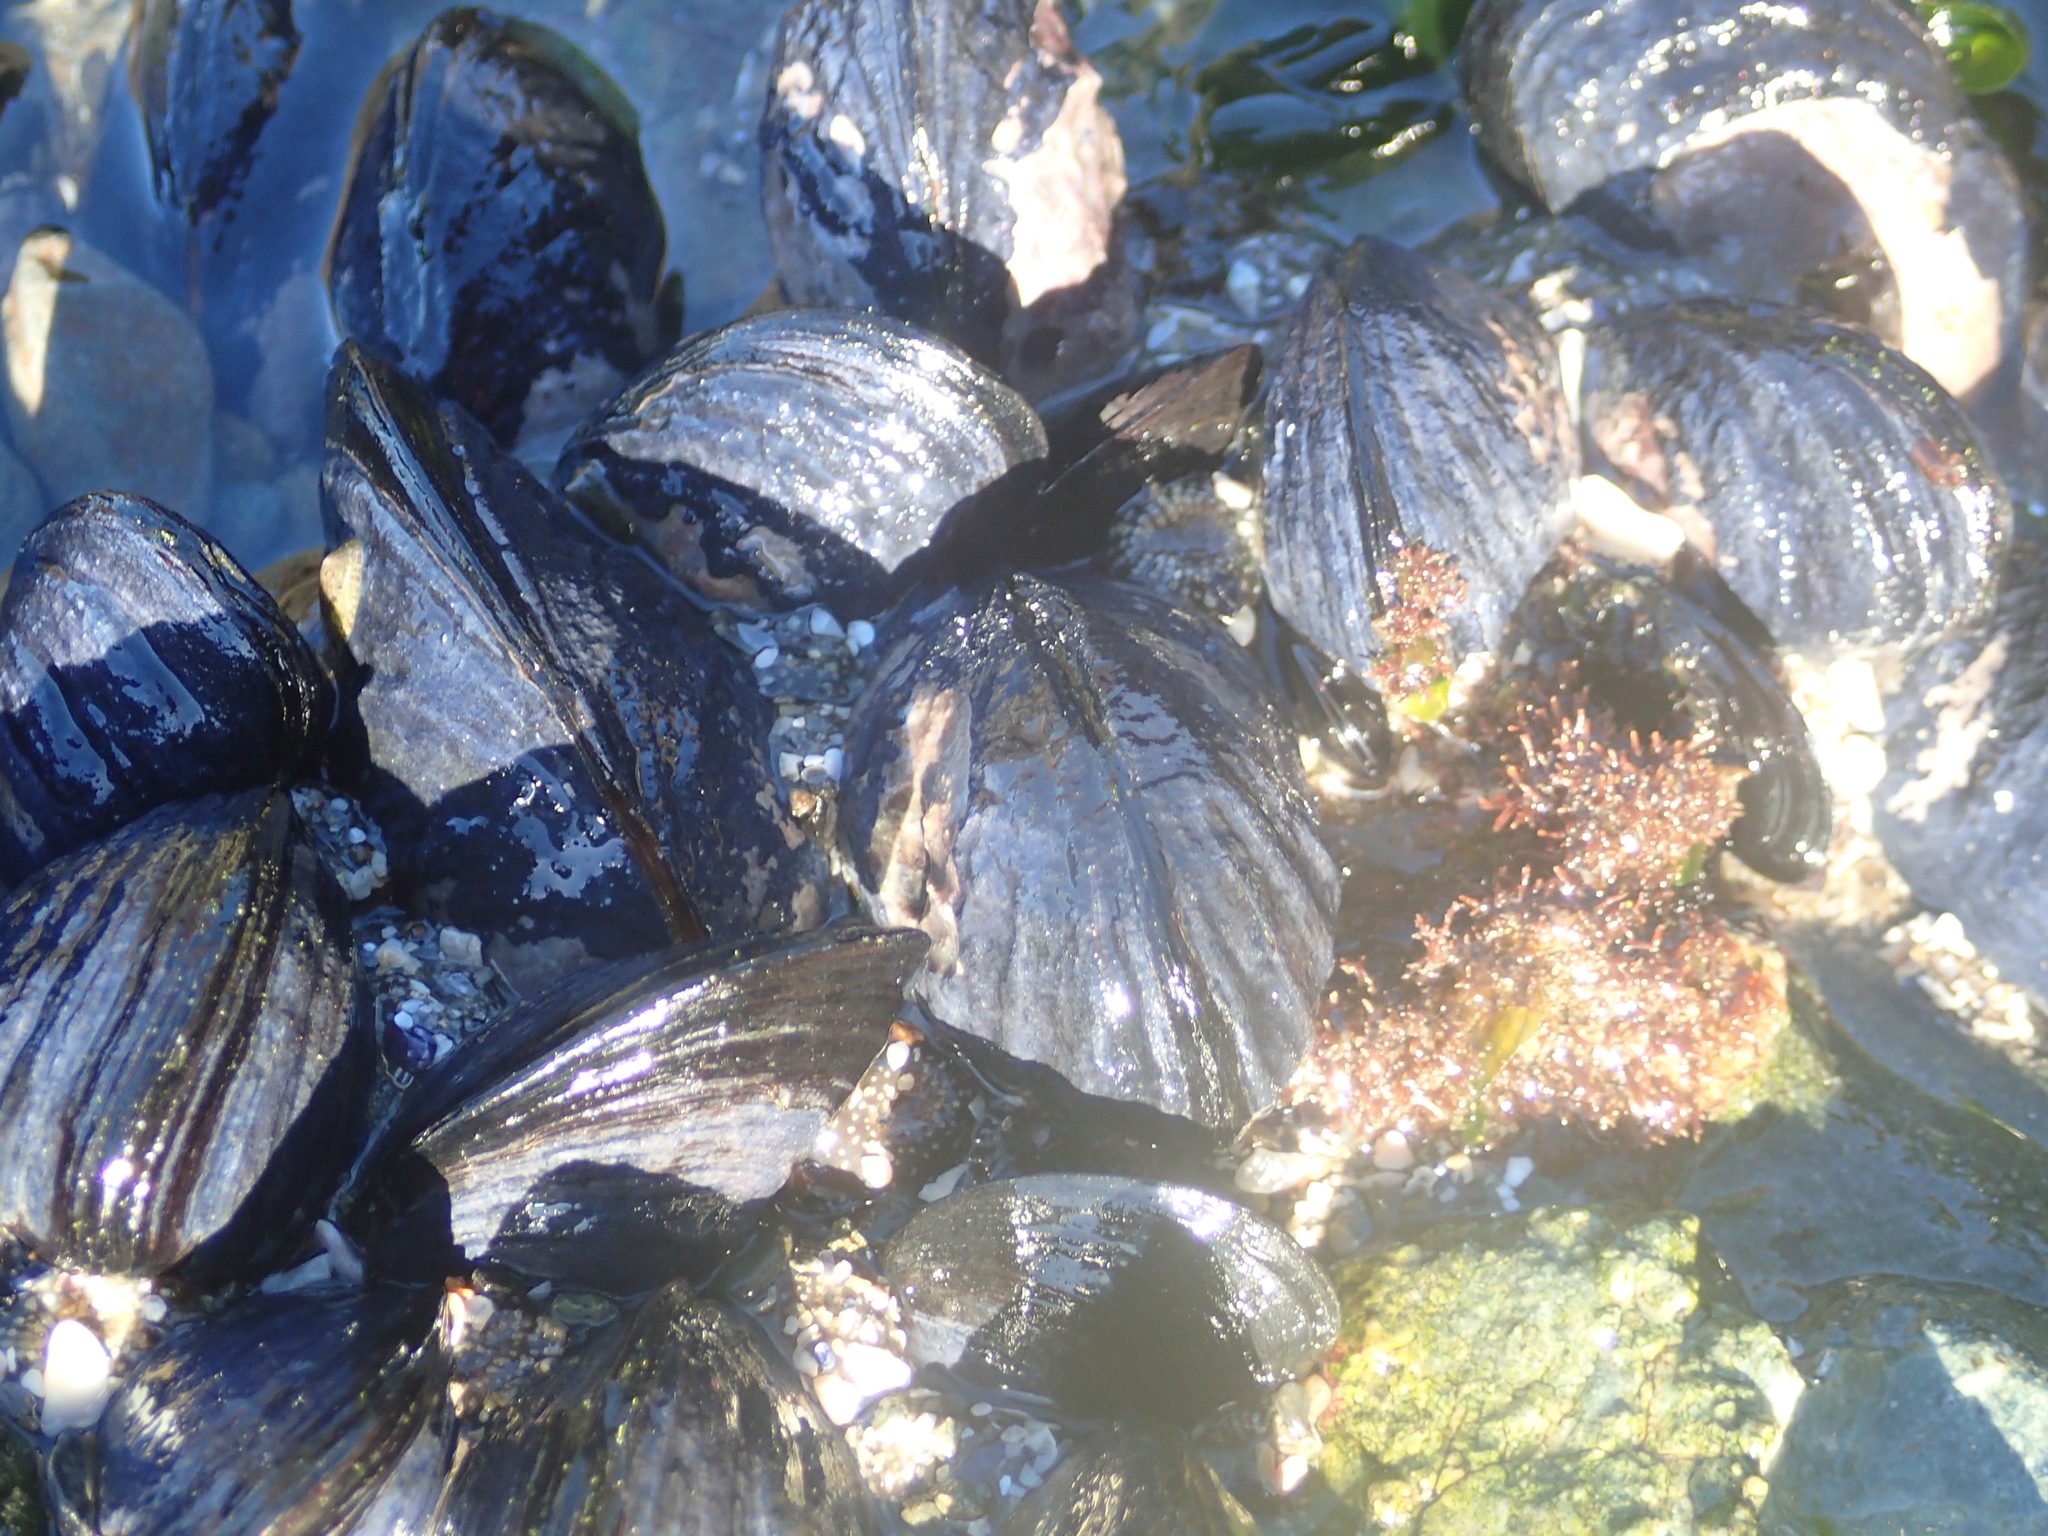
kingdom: Animalia
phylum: Mollusca
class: Bivalvia
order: Mytilida
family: Mytilidae
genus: Mytilus
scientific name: Mytilus planulatus
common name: Australian mussel
